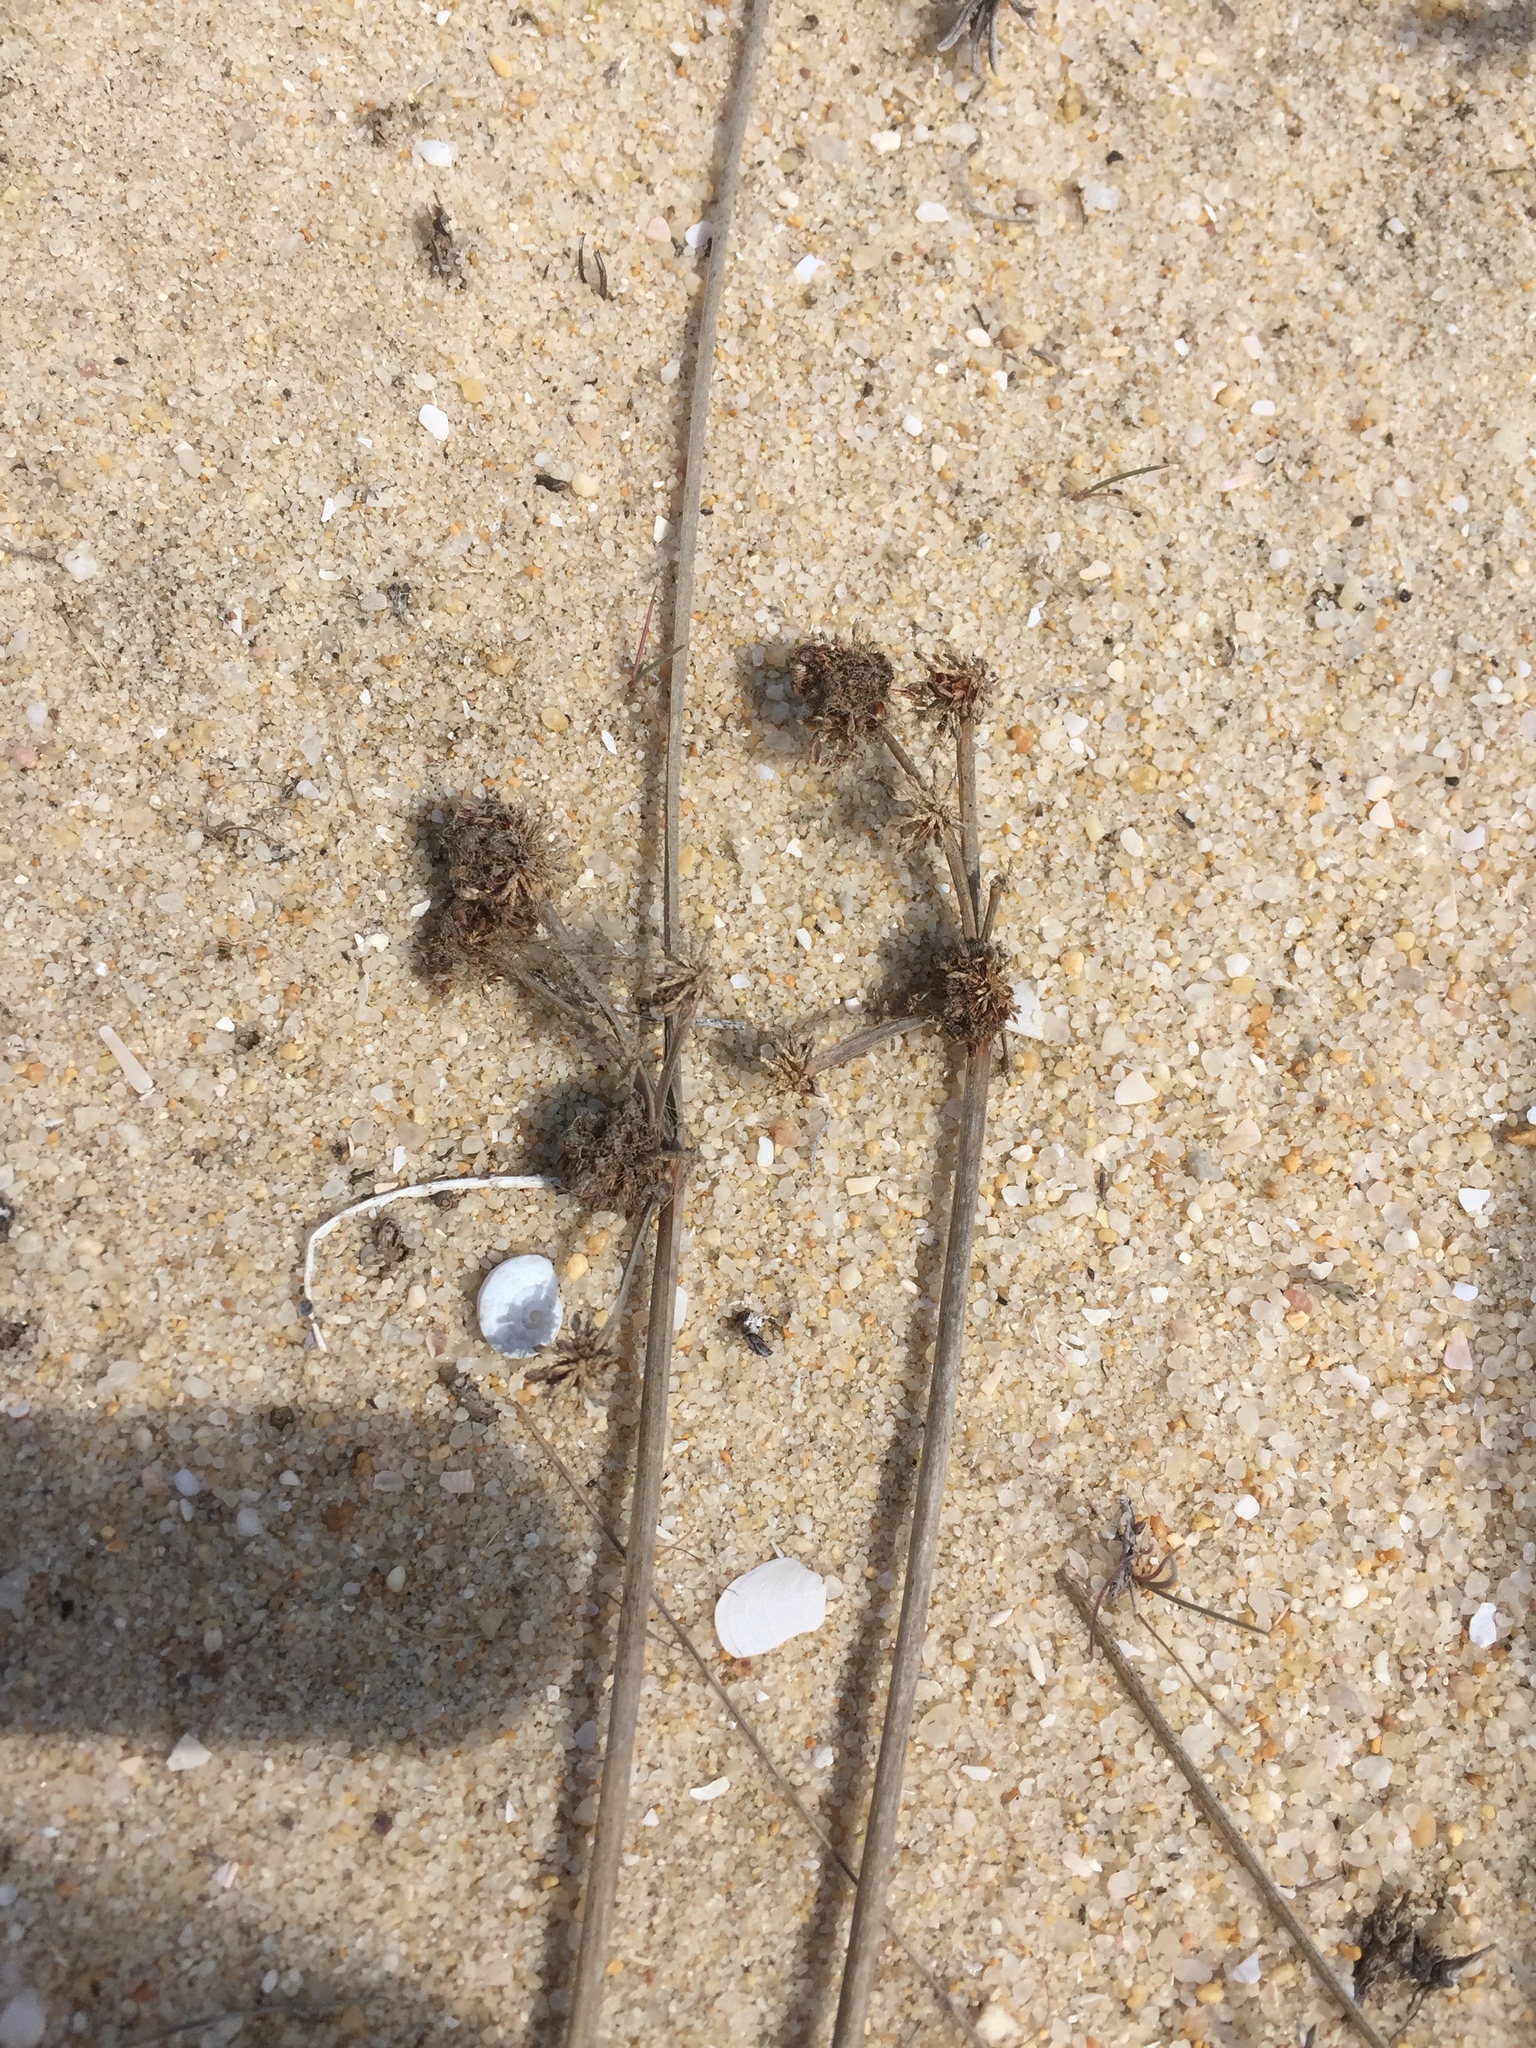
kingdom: Plantae
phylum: Tracheophyta
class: Liliopsida
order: Poales
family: Cyperaceae
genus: Scirpoides
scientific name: Scirpoides holoschoenus
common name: Round-headed club-rush
